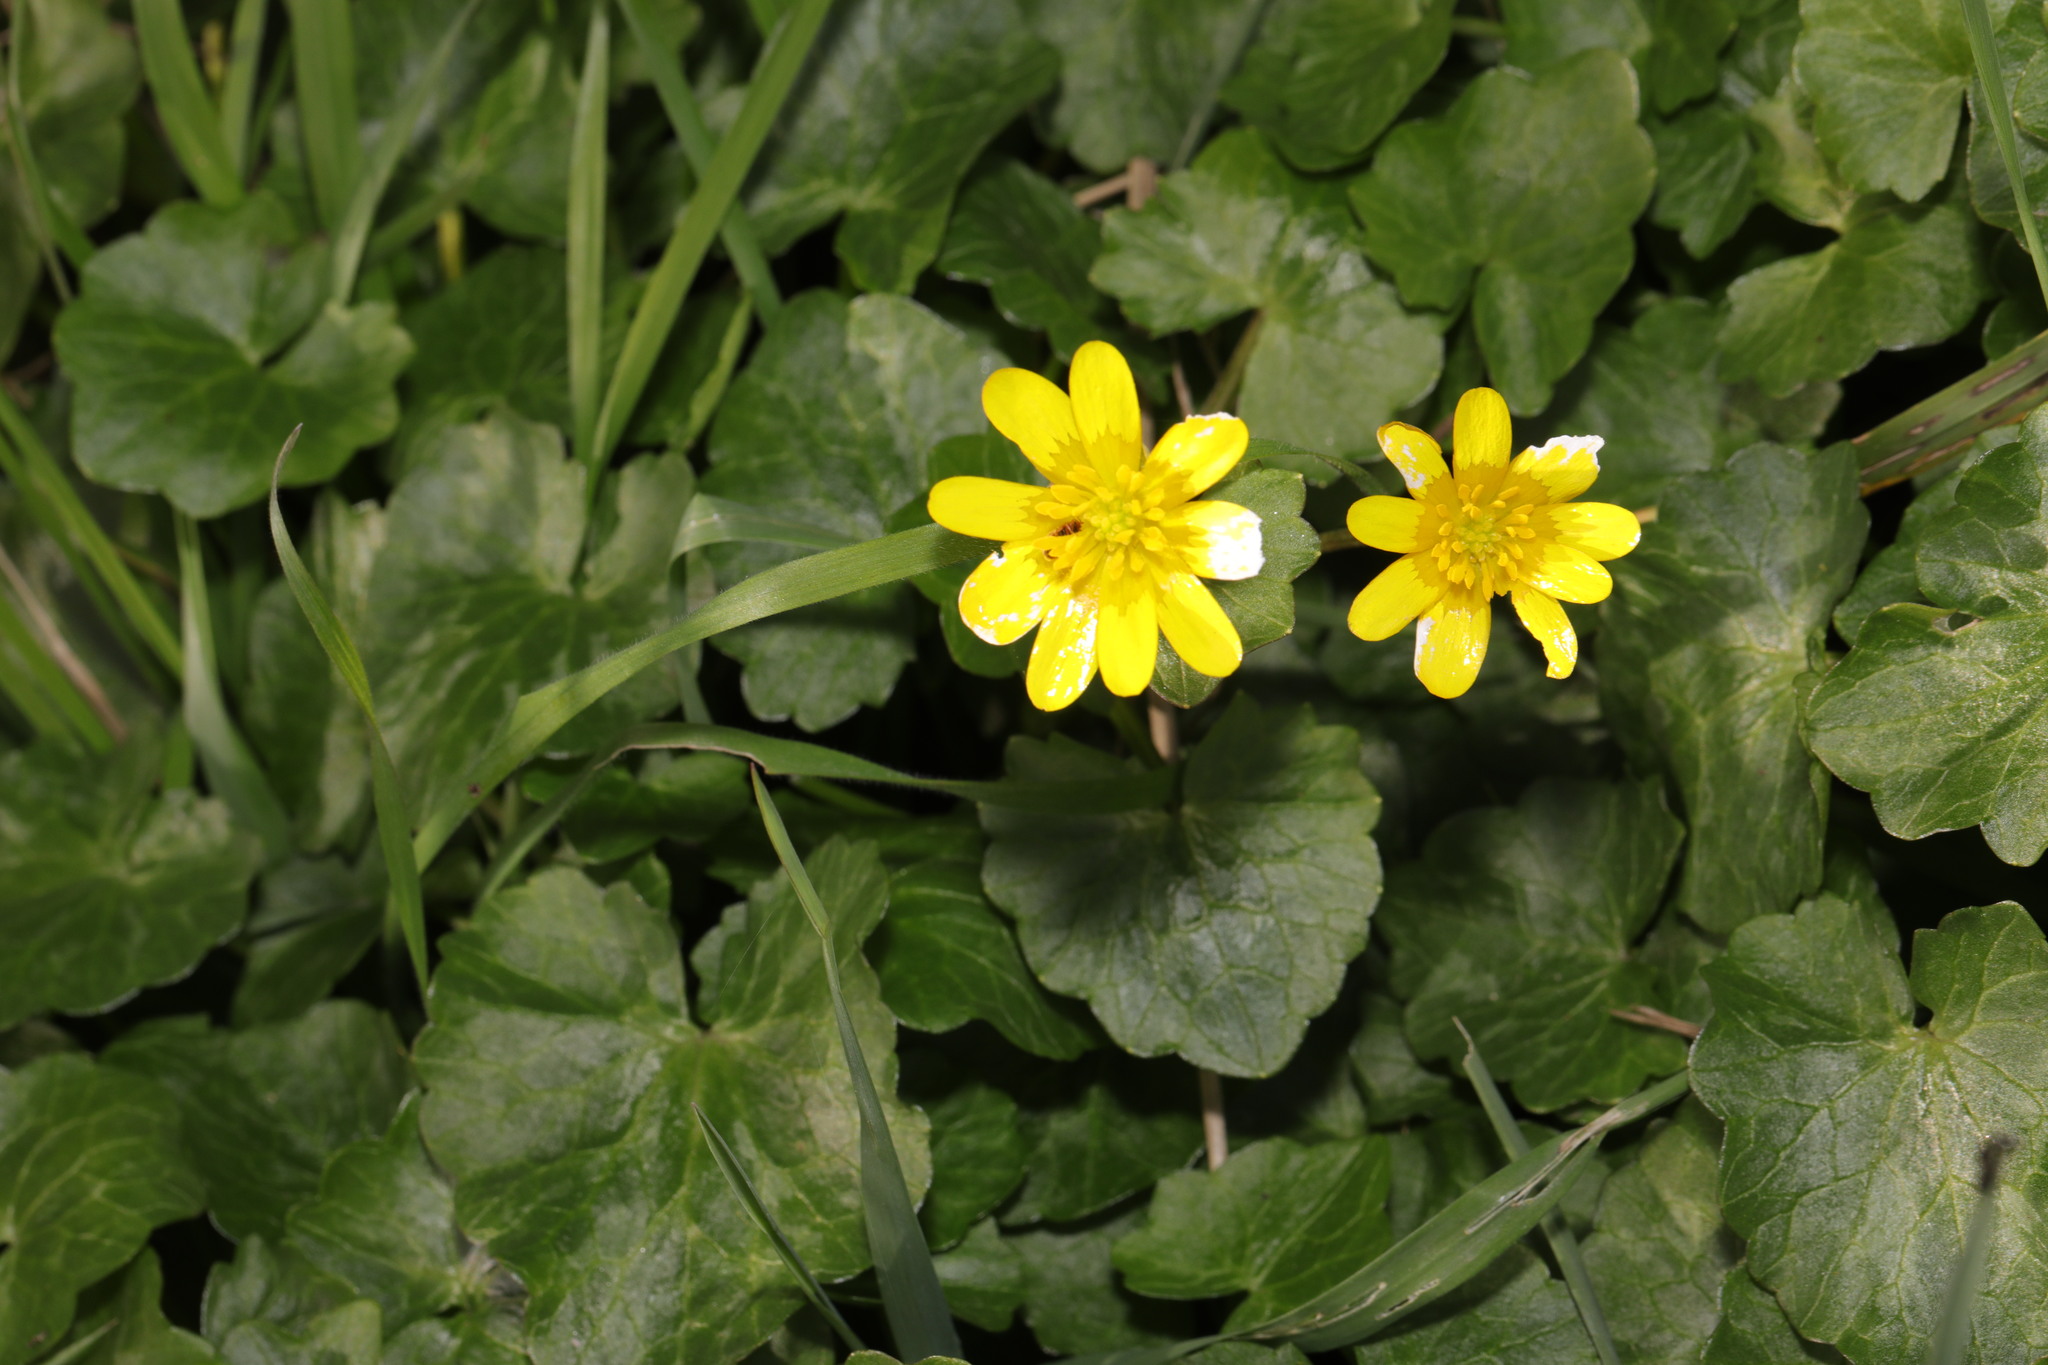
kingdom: Plantae
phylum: Tracheophyta
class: Magnoliopsida
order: Ranunculales
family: Ranunculaceae
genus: Ficaria
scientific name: Ficaria verna
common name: Lesser celandine
